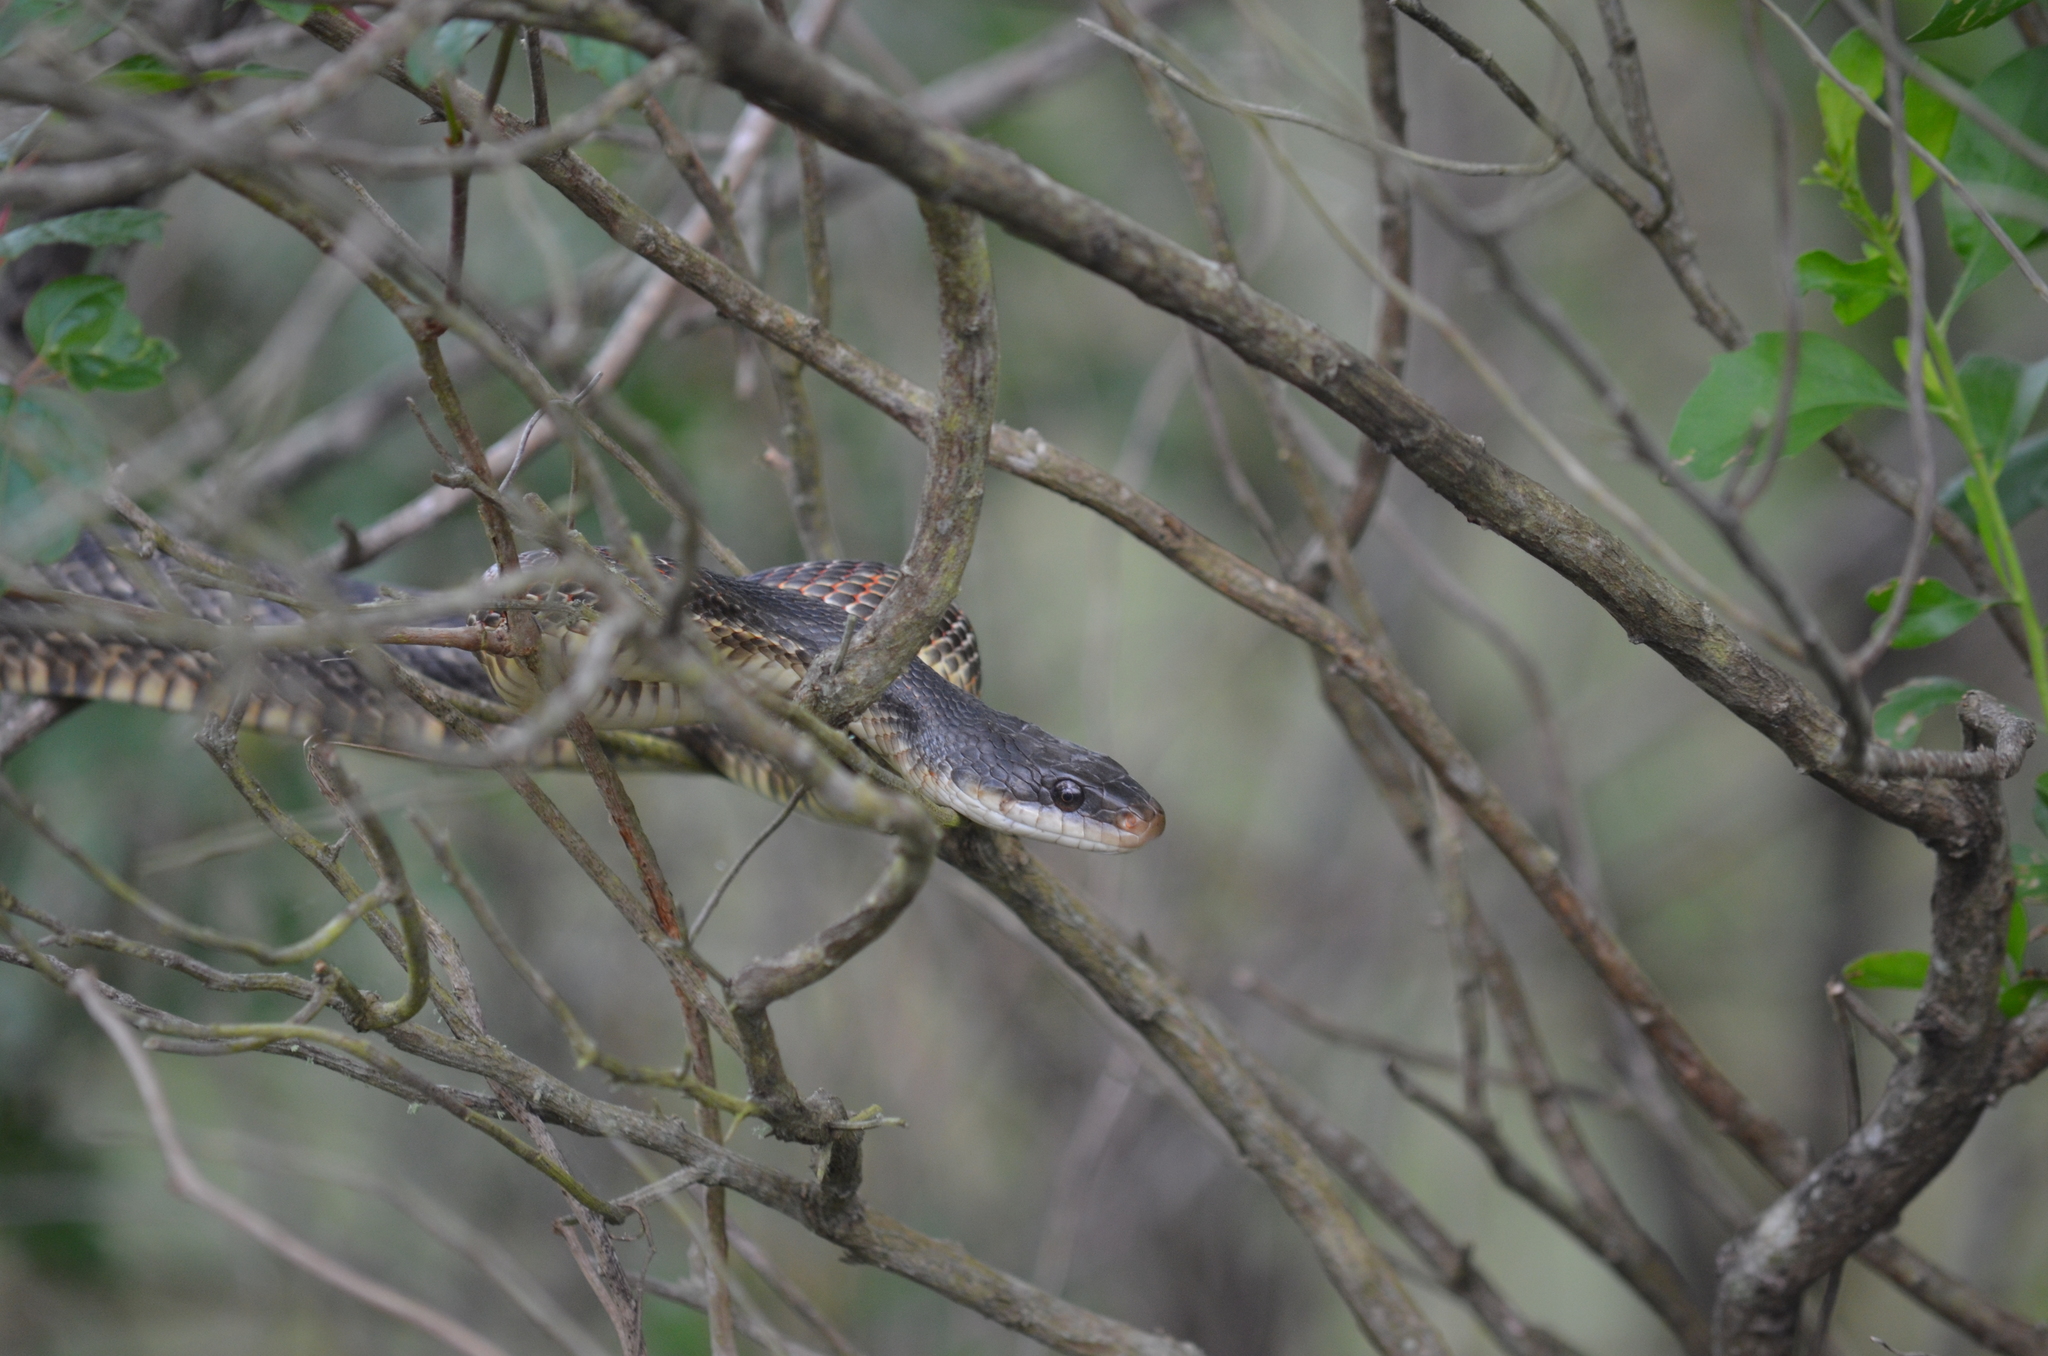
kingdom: Animalia
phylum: Chordata
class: Squamata
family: Colubridae
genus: Pantherophis
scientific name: Pantherophis obsoletus
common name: Black rat snake
